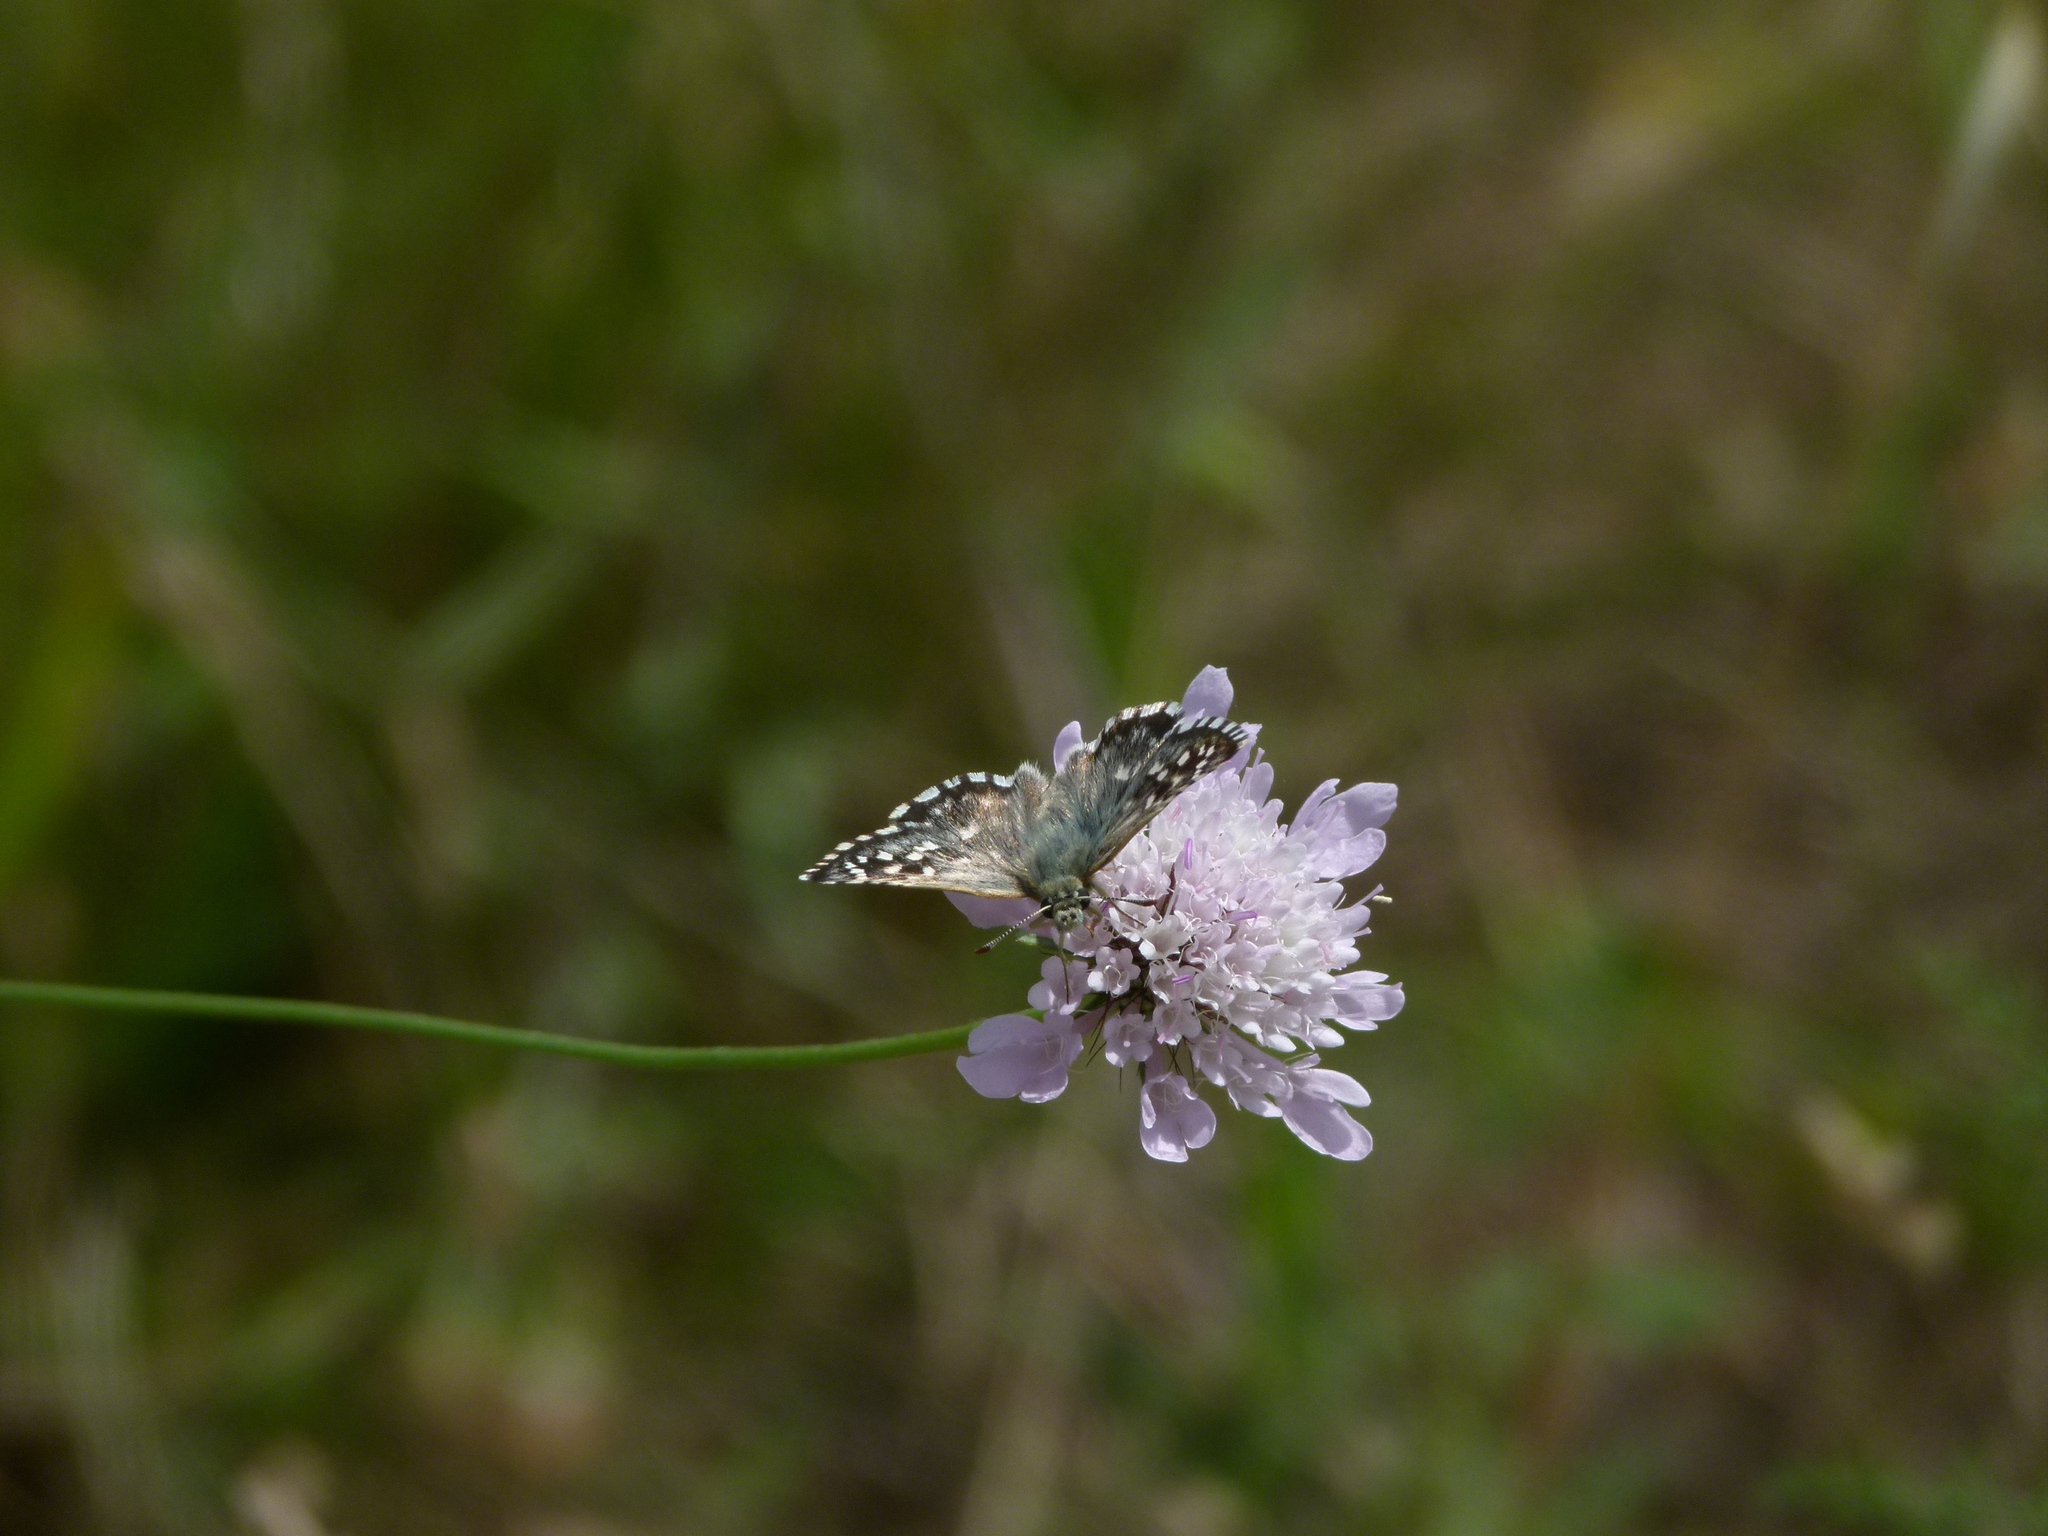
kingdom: Animalia
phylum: Arthropoda
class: Insecta
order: Lepidoptera
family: Hesperiidae
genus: Pyrgus
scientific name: Pyrgus malvoides
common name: Southern grizzled skipper
